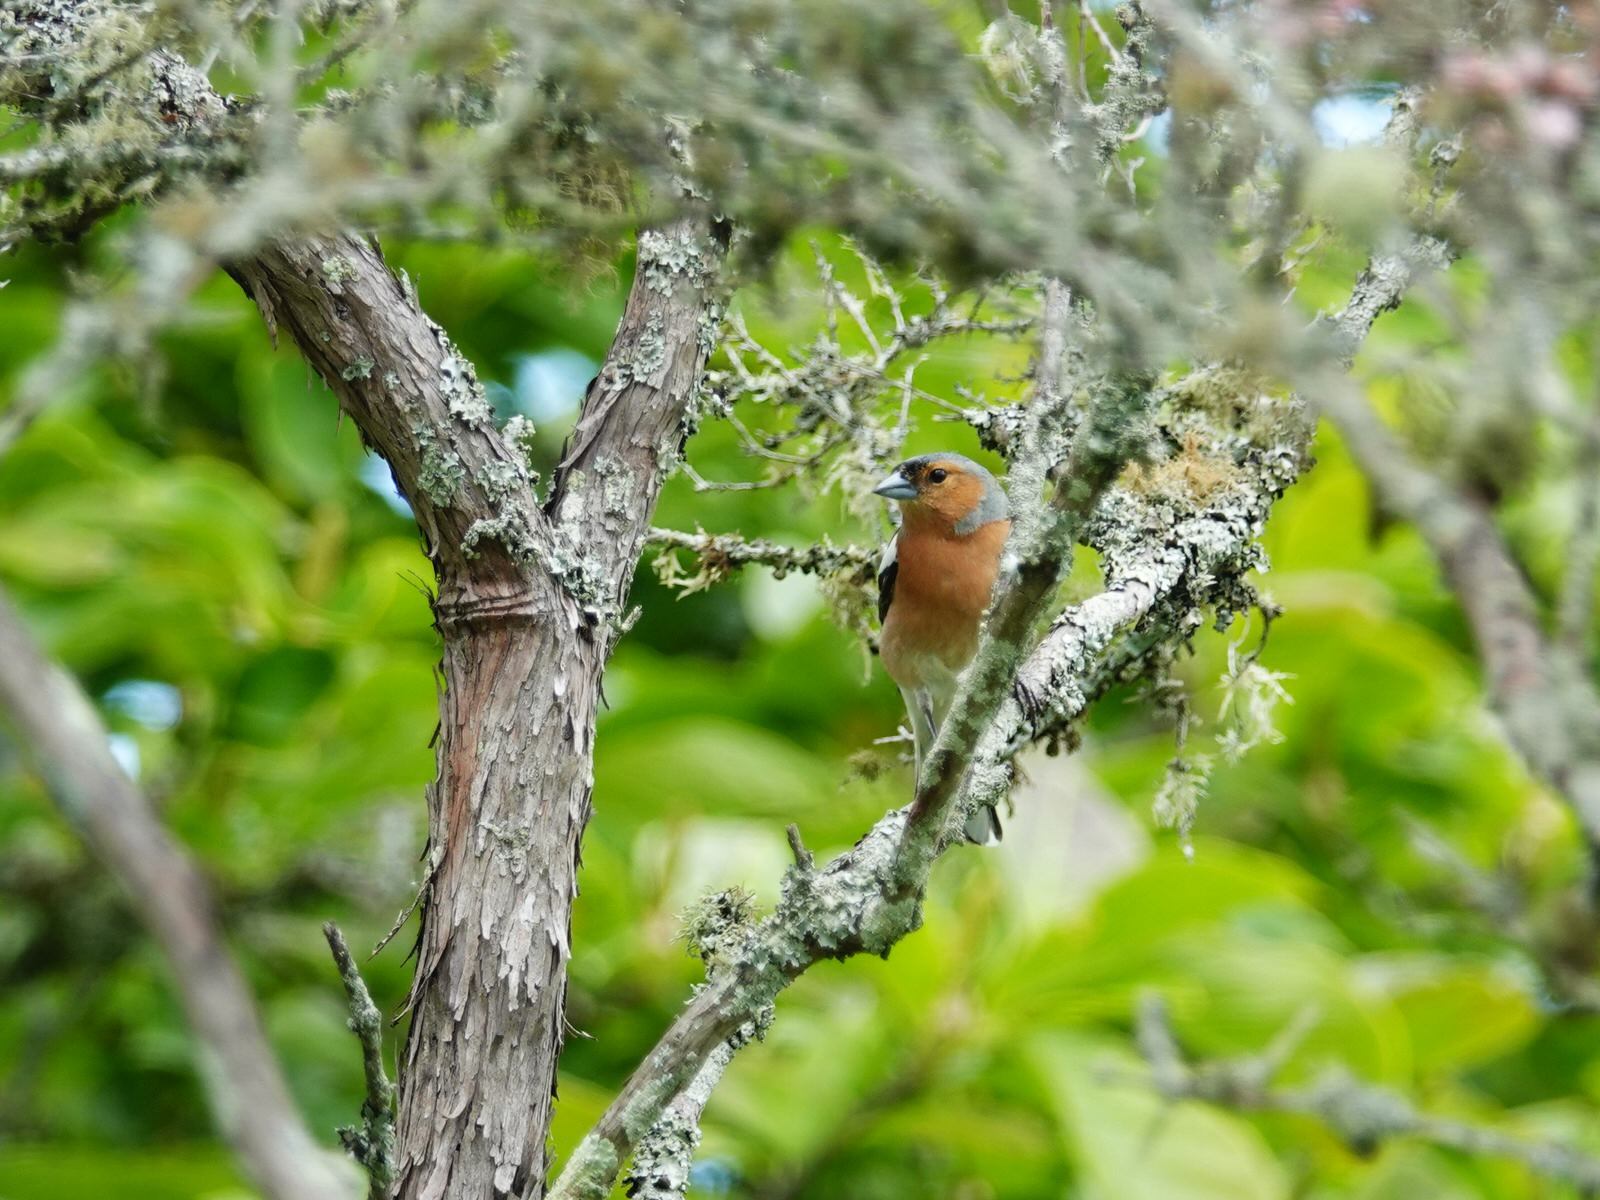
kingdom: Animalia
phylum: Chordata
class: Aves
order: Passeriformes
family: Fringillidae
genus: Fringilla
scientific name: Fringilla coelebs
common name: Common chaffinch
